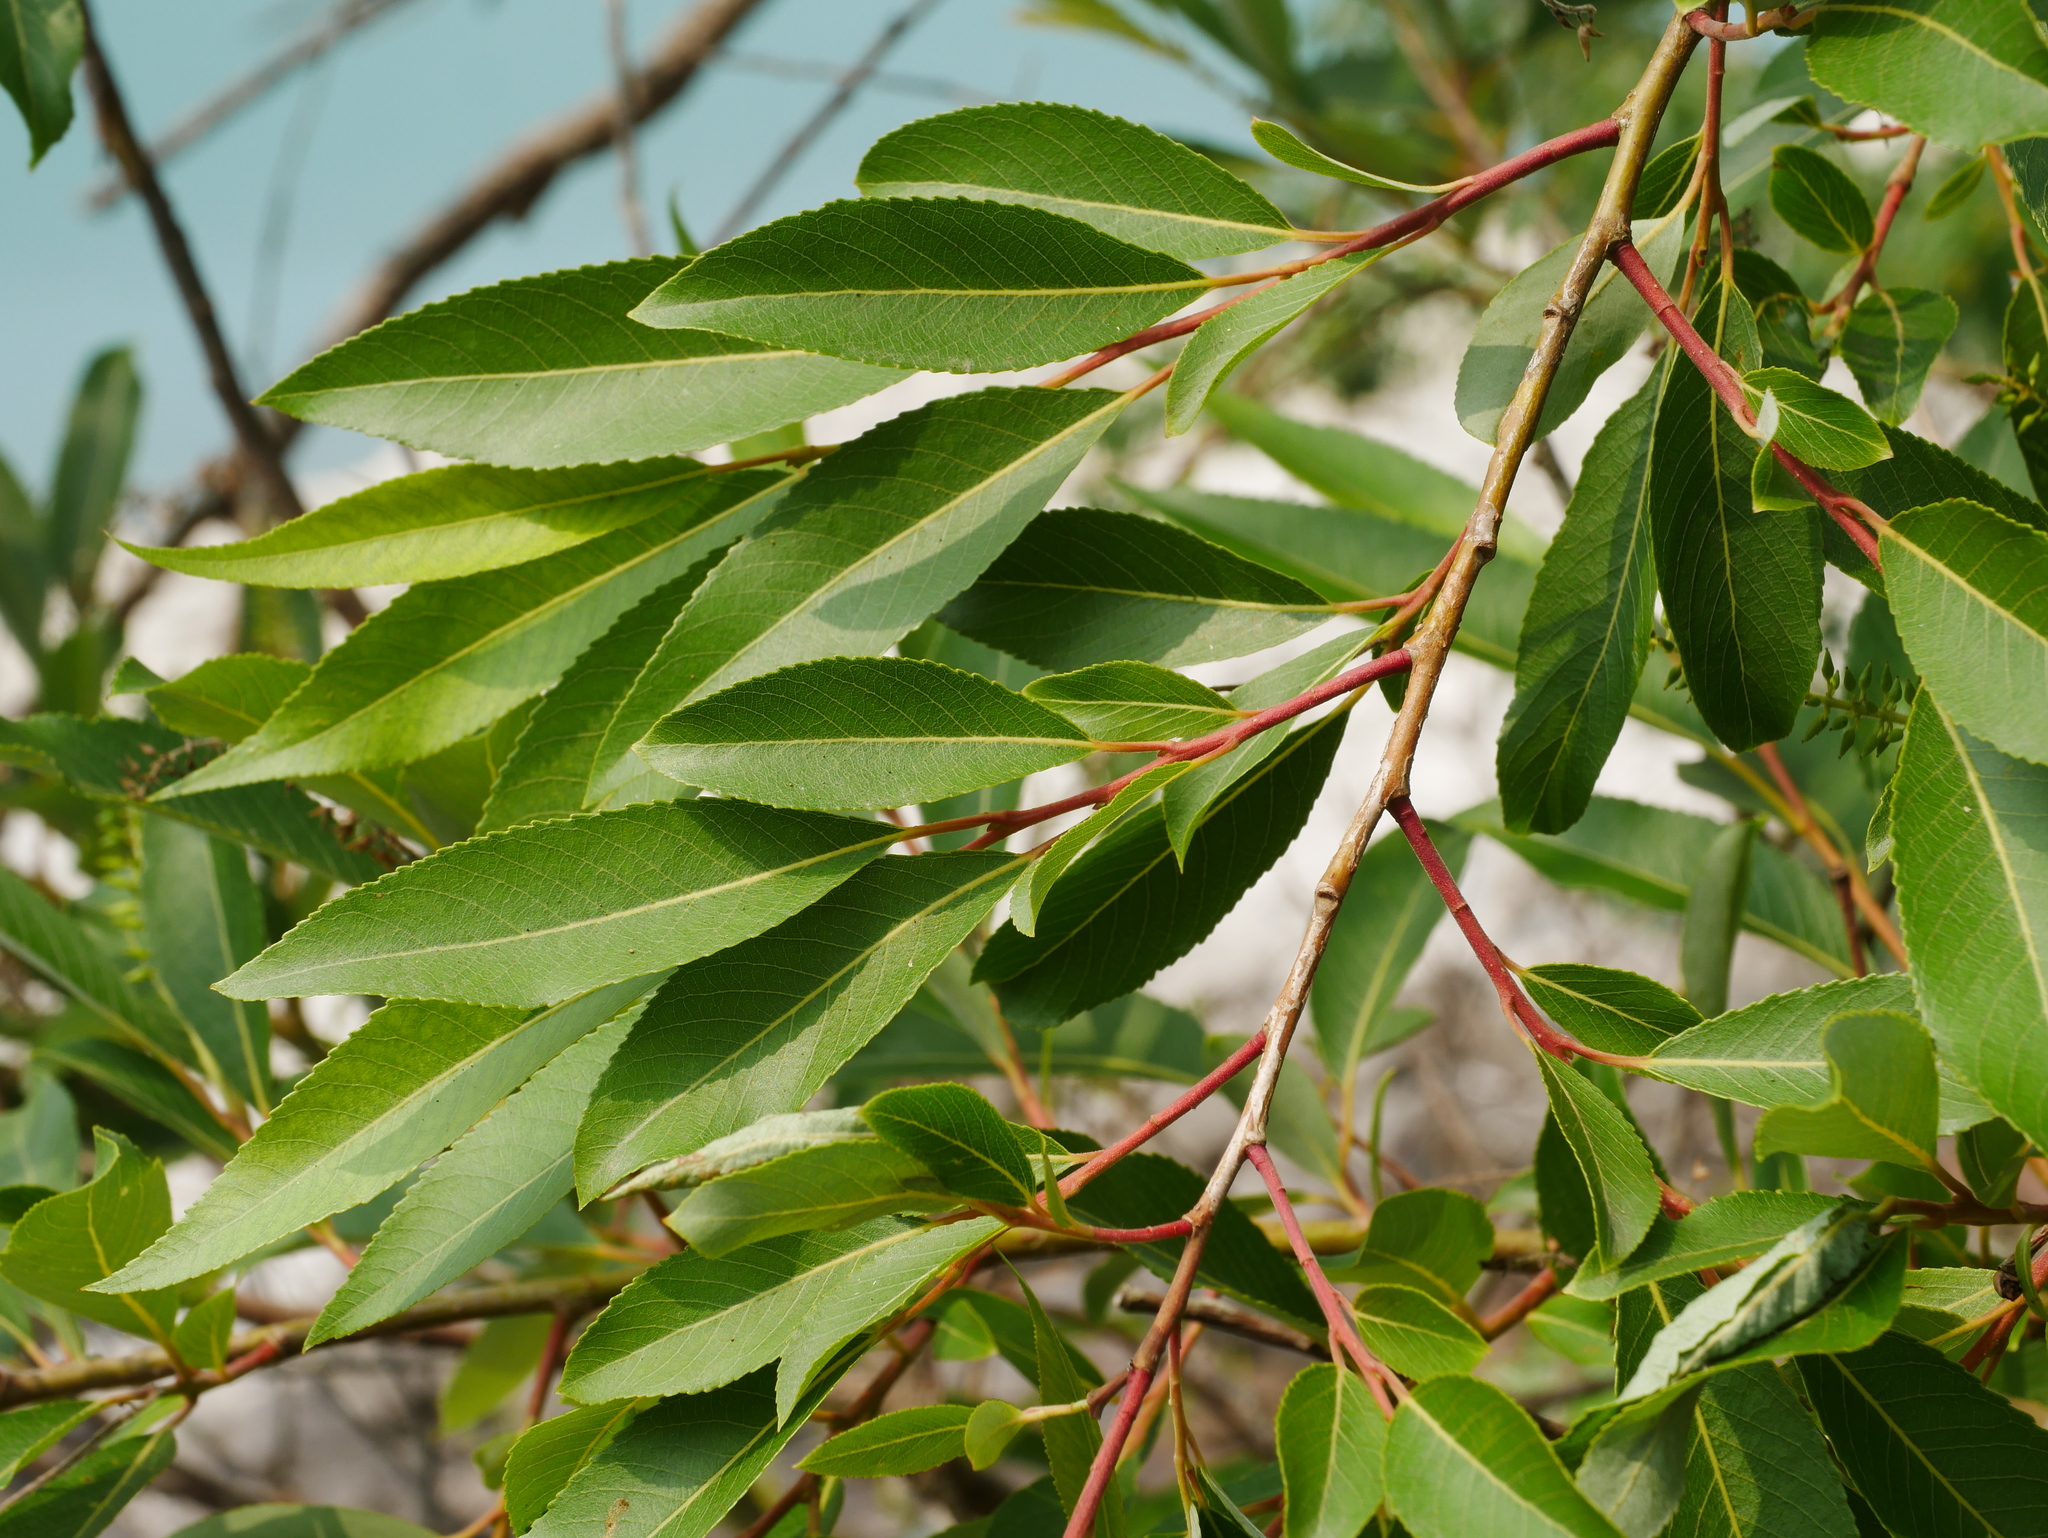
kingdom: Plantae
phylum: Tracheophyta
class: Magnoliopsida
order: Malpighiales
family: Salicaceae
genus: Salix
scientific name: Salix mesnyi
